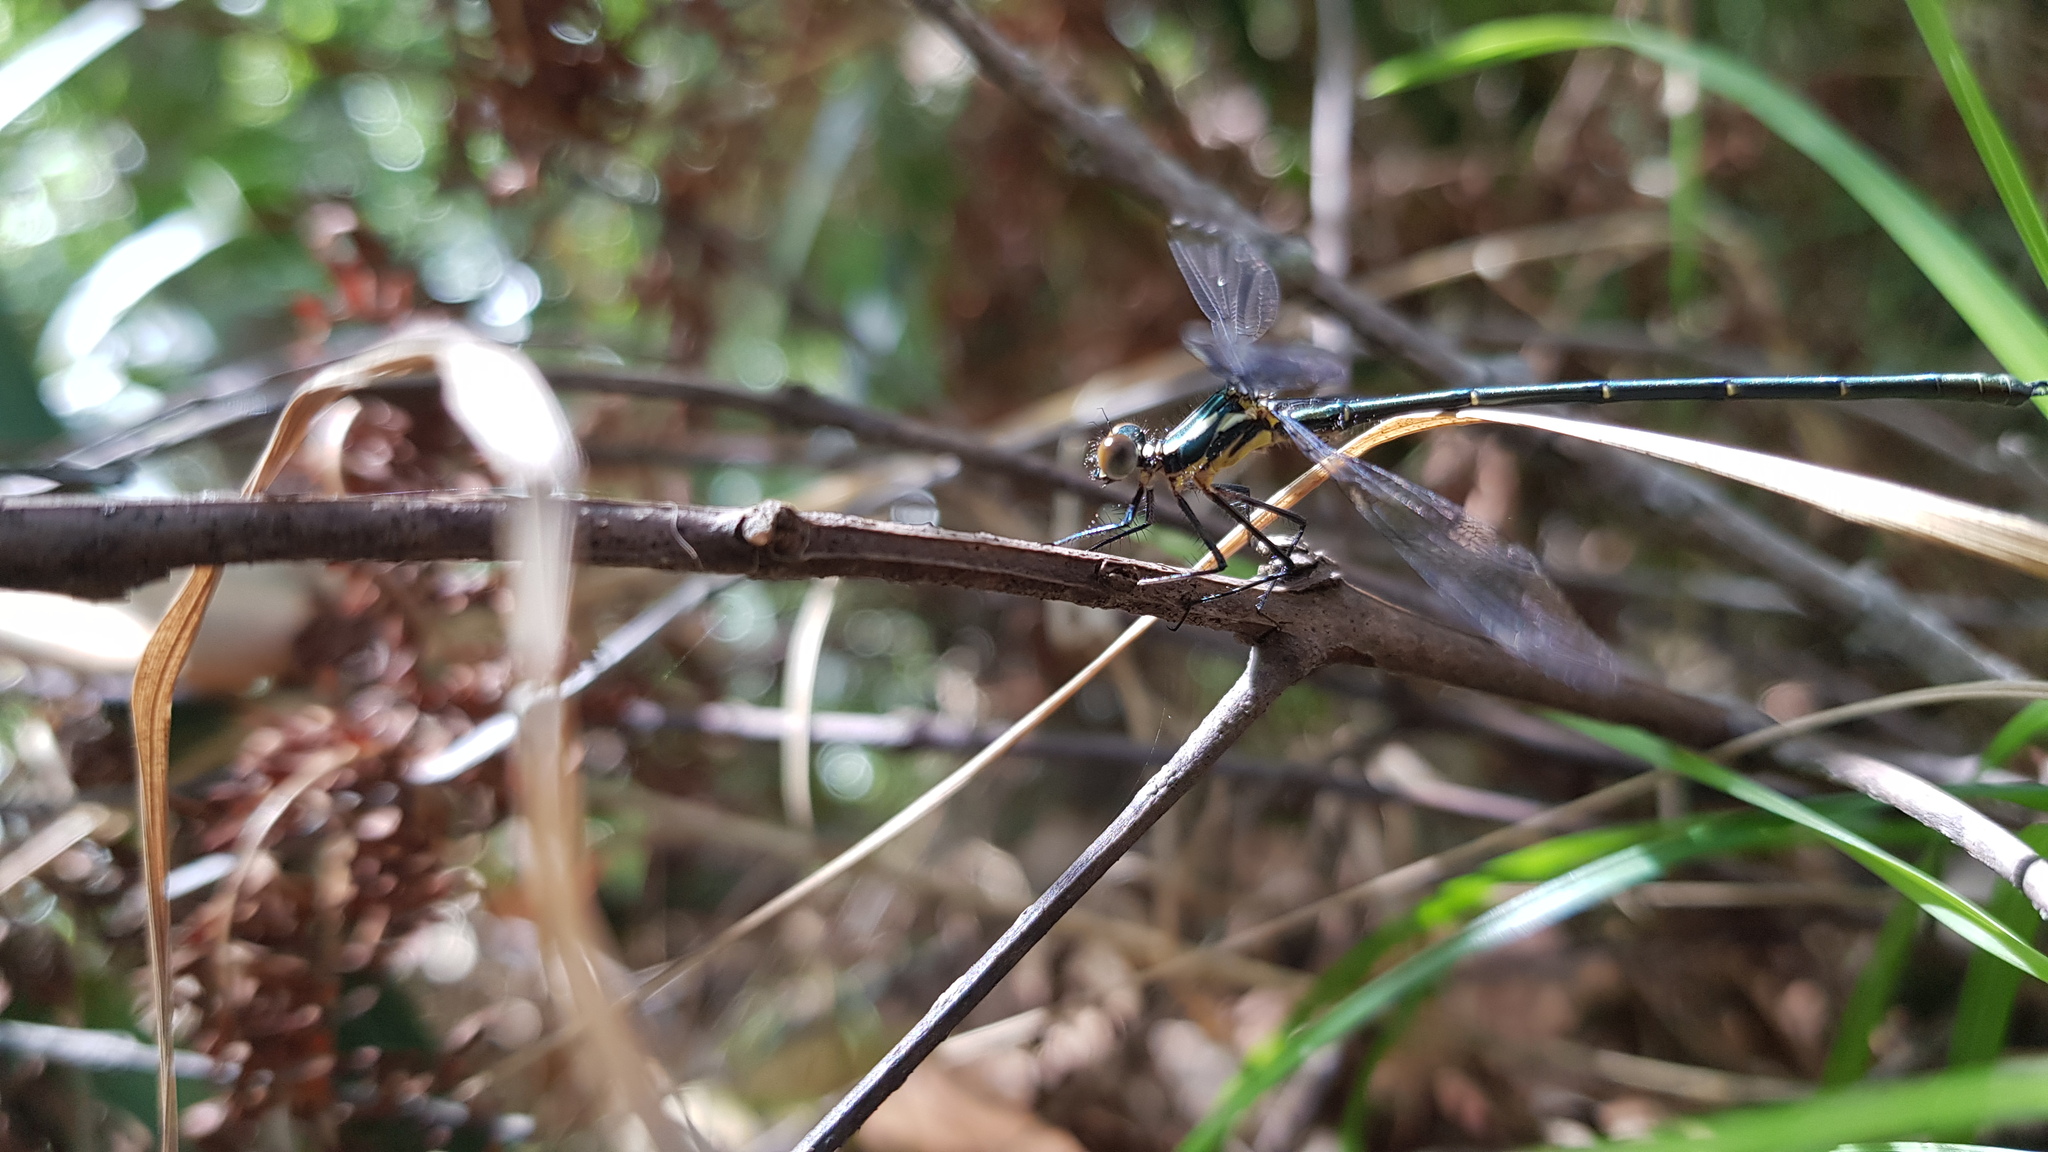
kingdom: Animalia
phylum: Arthropoda
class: Insecta
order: Odonata
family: Argiolestidae
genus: Austroargiolestes
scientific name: Austroargiolestes icteromelas
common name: Common flatwing
